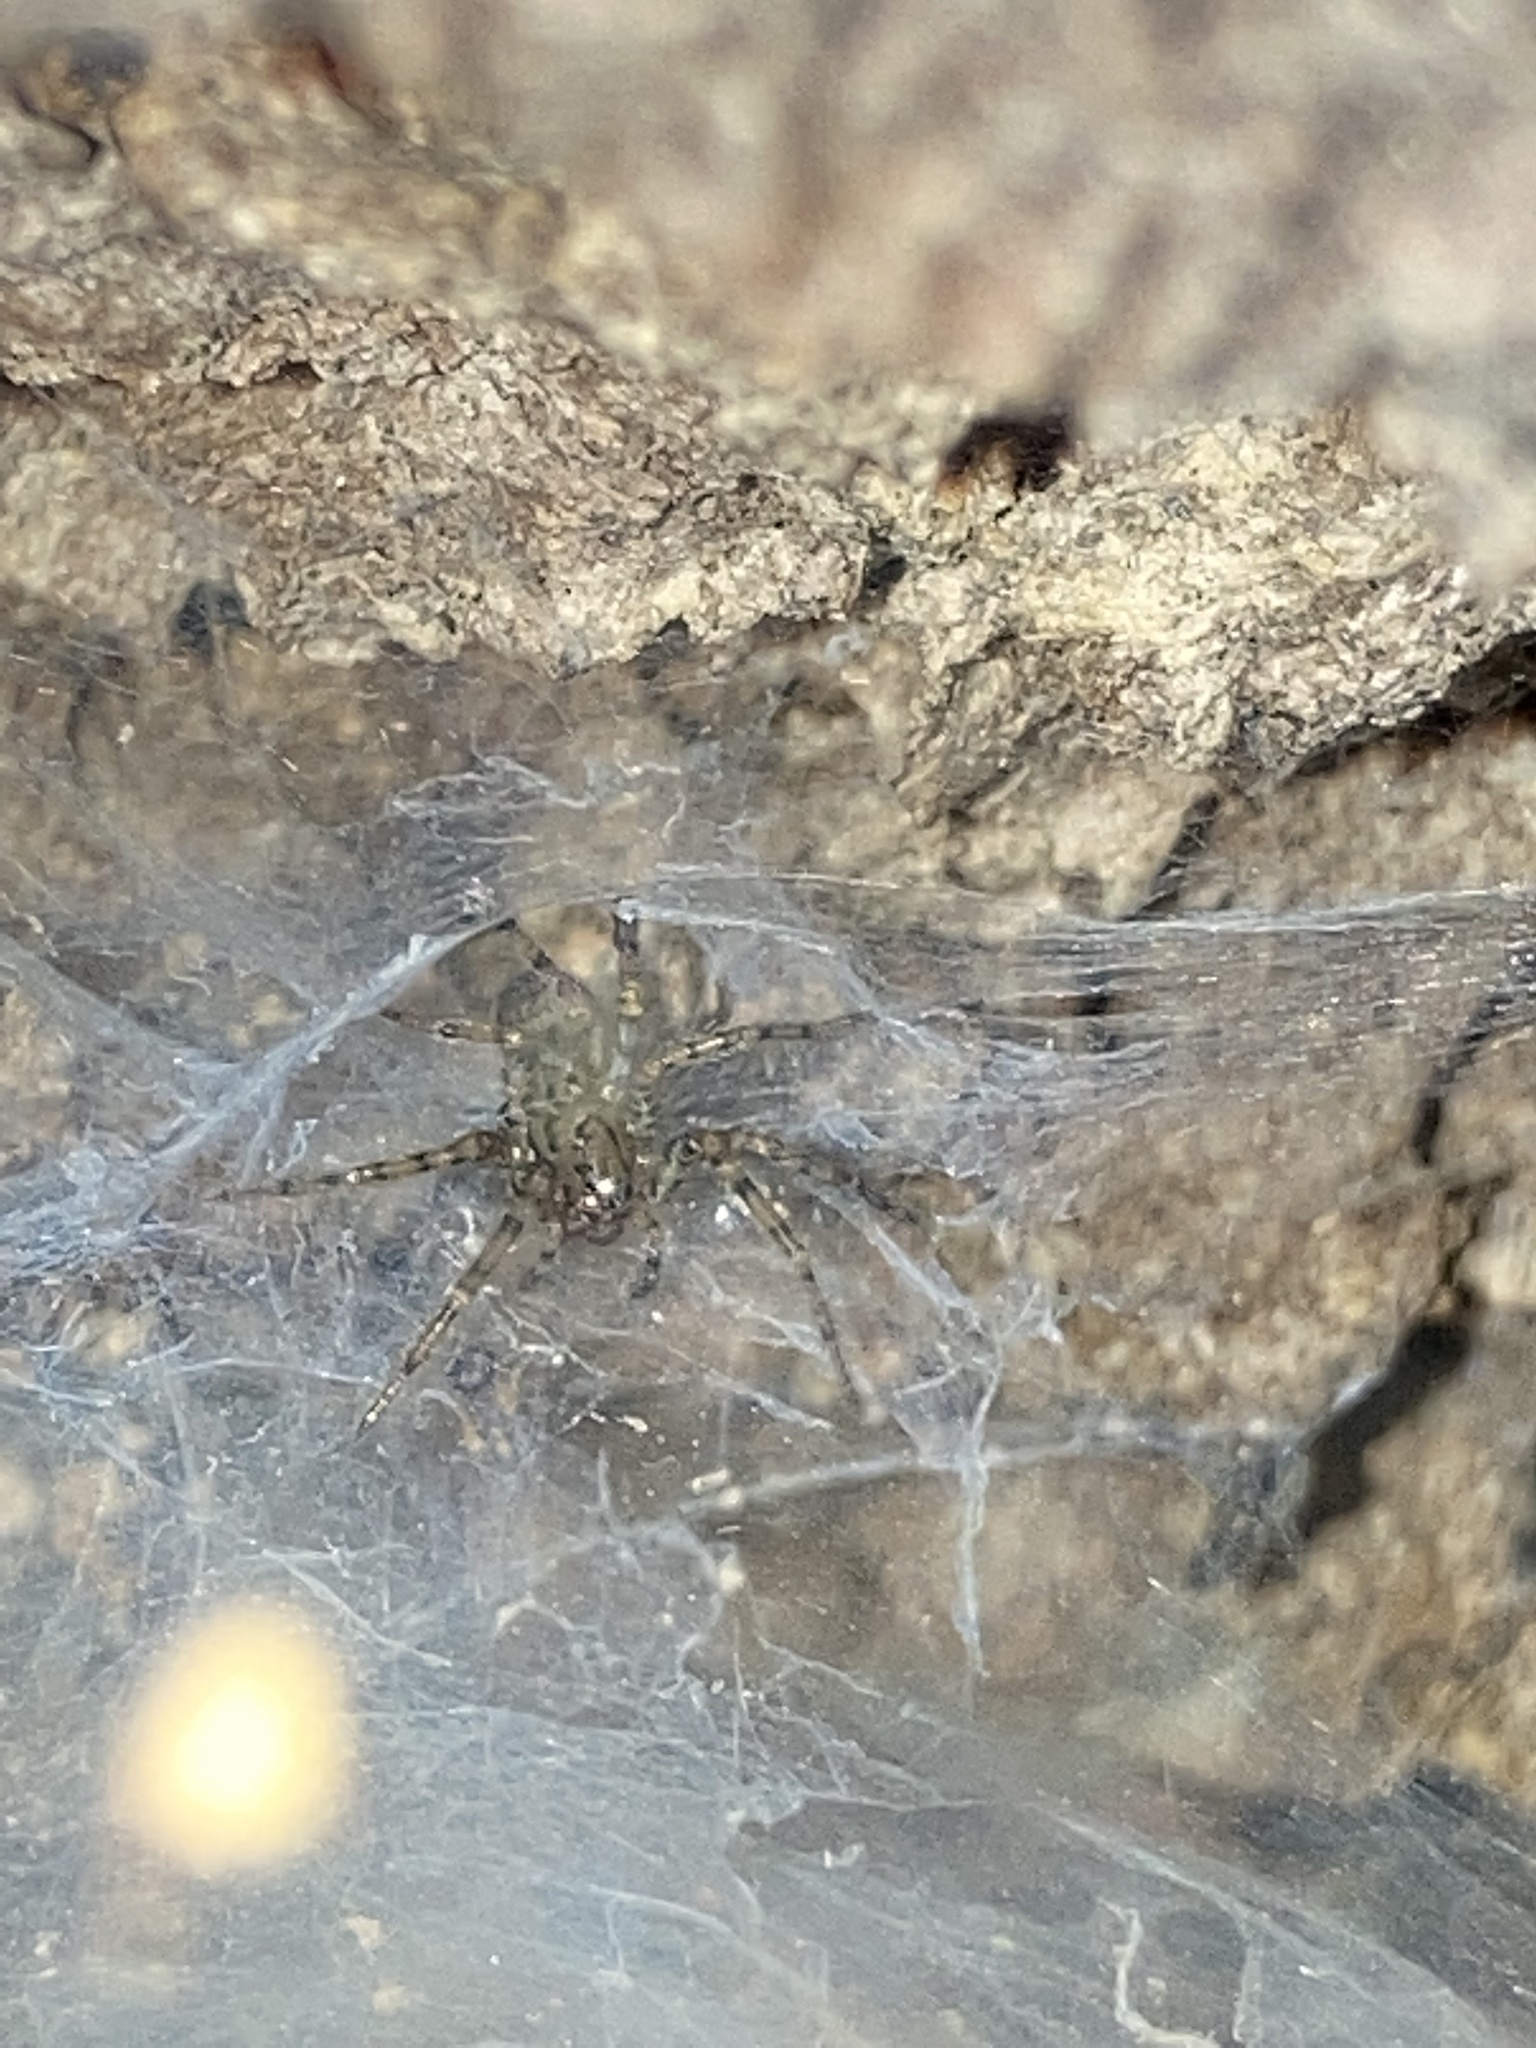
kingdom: Animalia
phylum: Arthropoda
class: Arachnida
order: Araneae
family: Agelenidae
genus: Coras
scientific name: Coras
